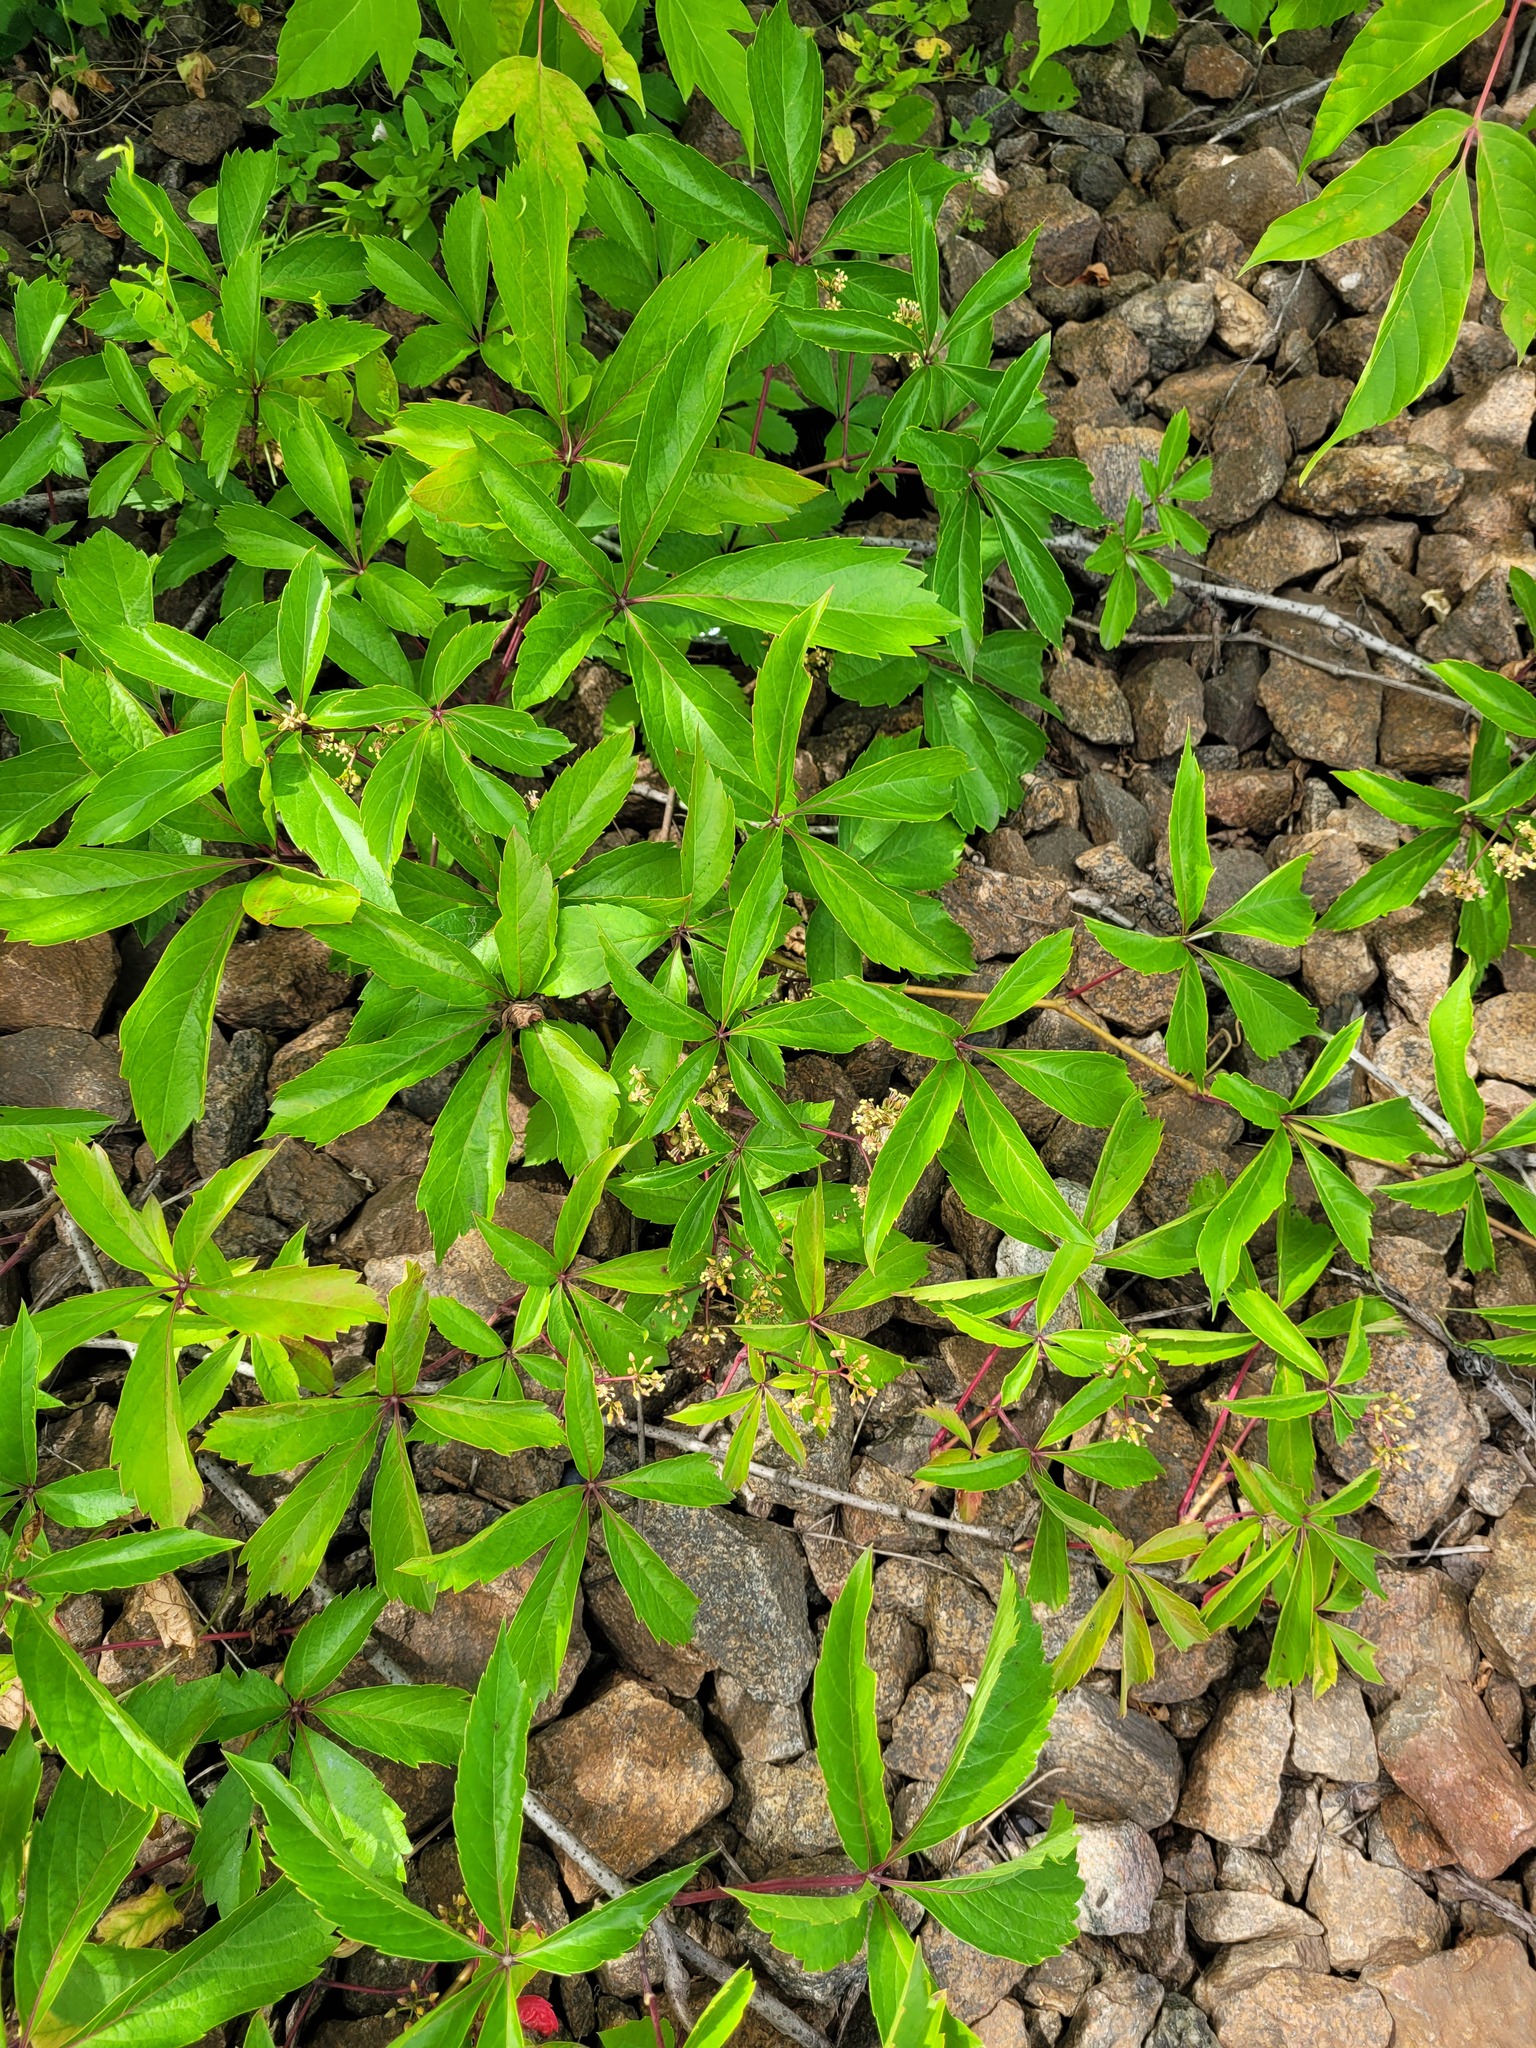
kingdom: Plantae
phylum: Tracheophyta
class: Magnoliopsida
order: Vitales
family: Vitaceae
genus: Parthenocissus
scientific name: Parthenocissus inserta
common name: False virginia-creeper
